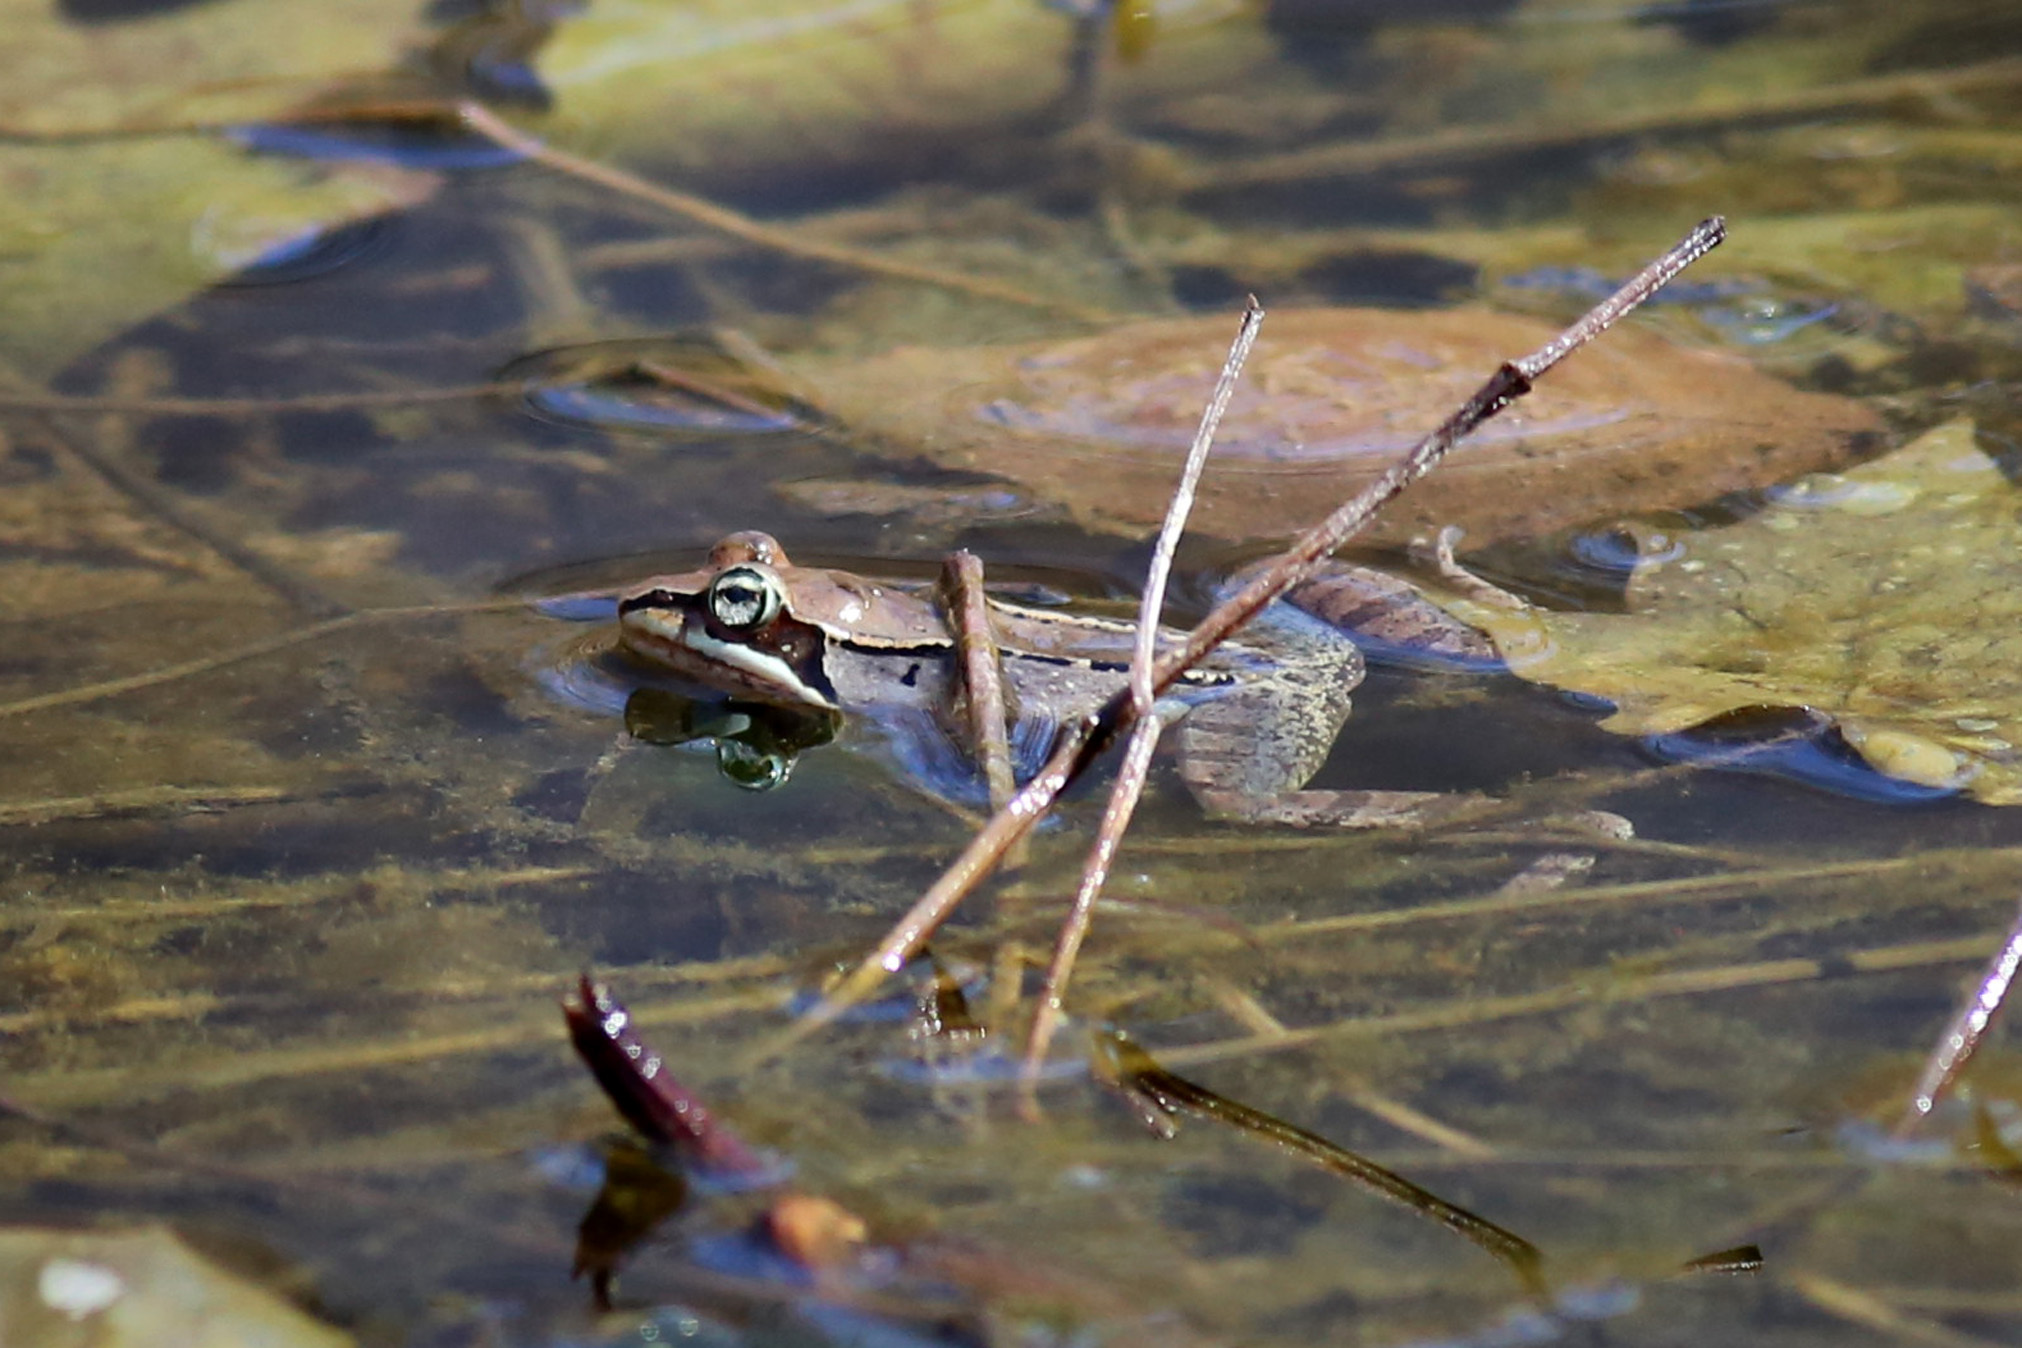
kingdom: Animalia
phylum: Chordata
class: Amphibia
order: Anura
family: Ranidae
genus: Lithobates
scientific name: Lithobates sylvaticus
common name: Wood frog
